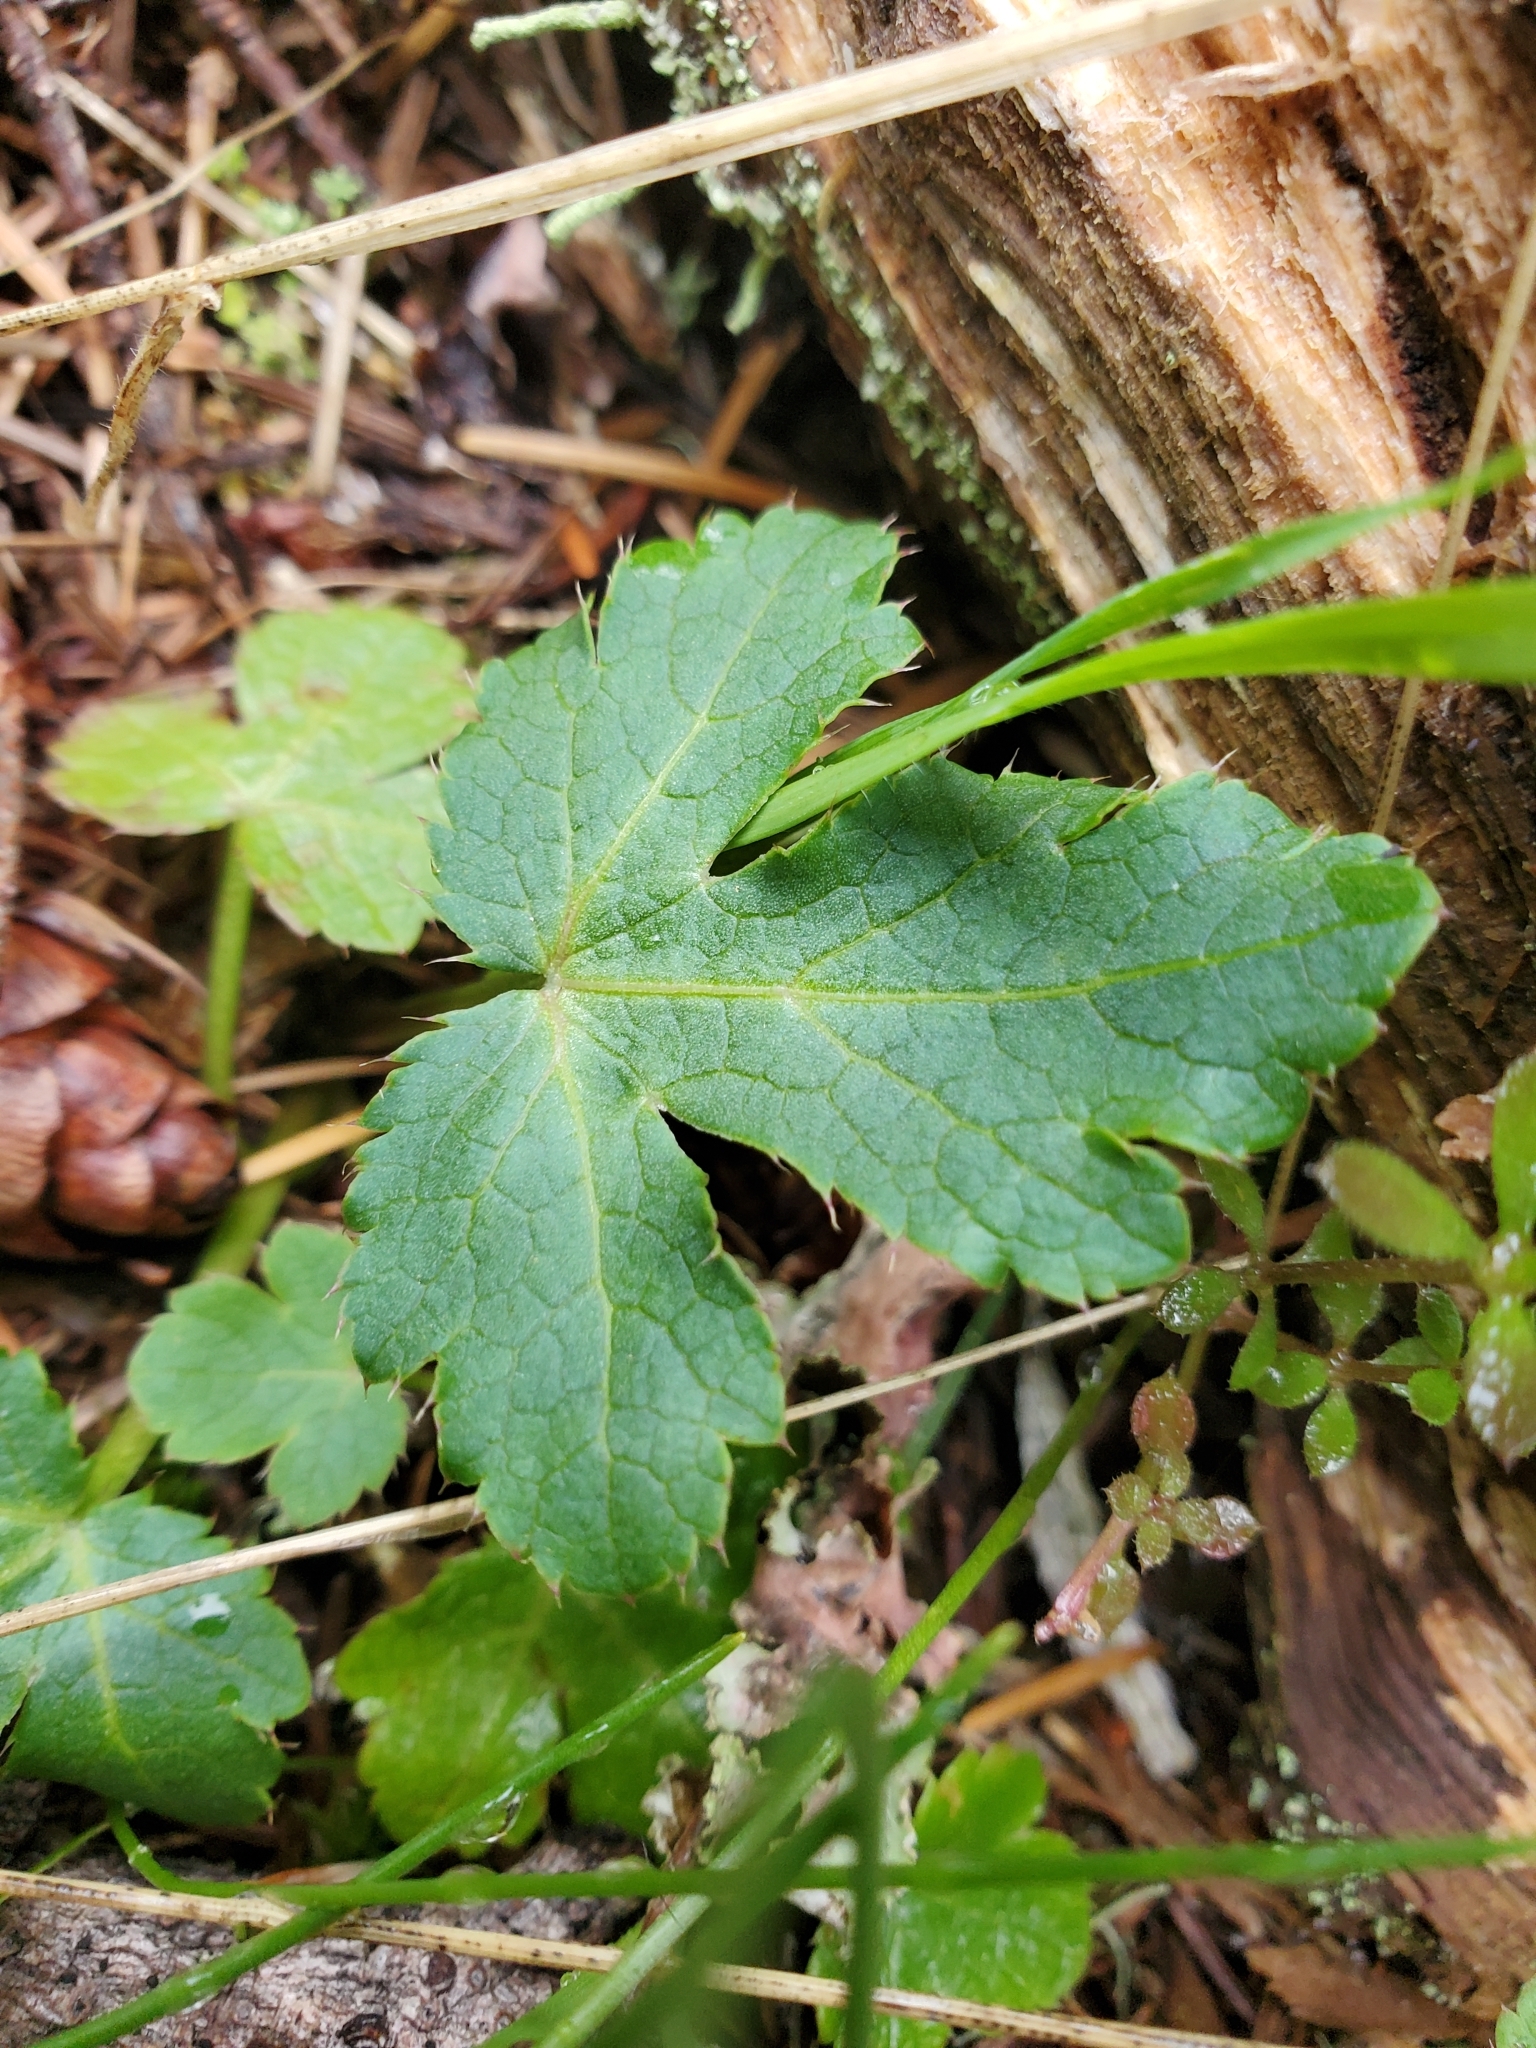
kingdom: Plantae
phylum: Tracheophyta
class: Magnoliopsida
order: Apiales
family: Apiaceae
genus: Sanicula
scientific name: Sanicula crassicaulis
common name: Western snakeroot
